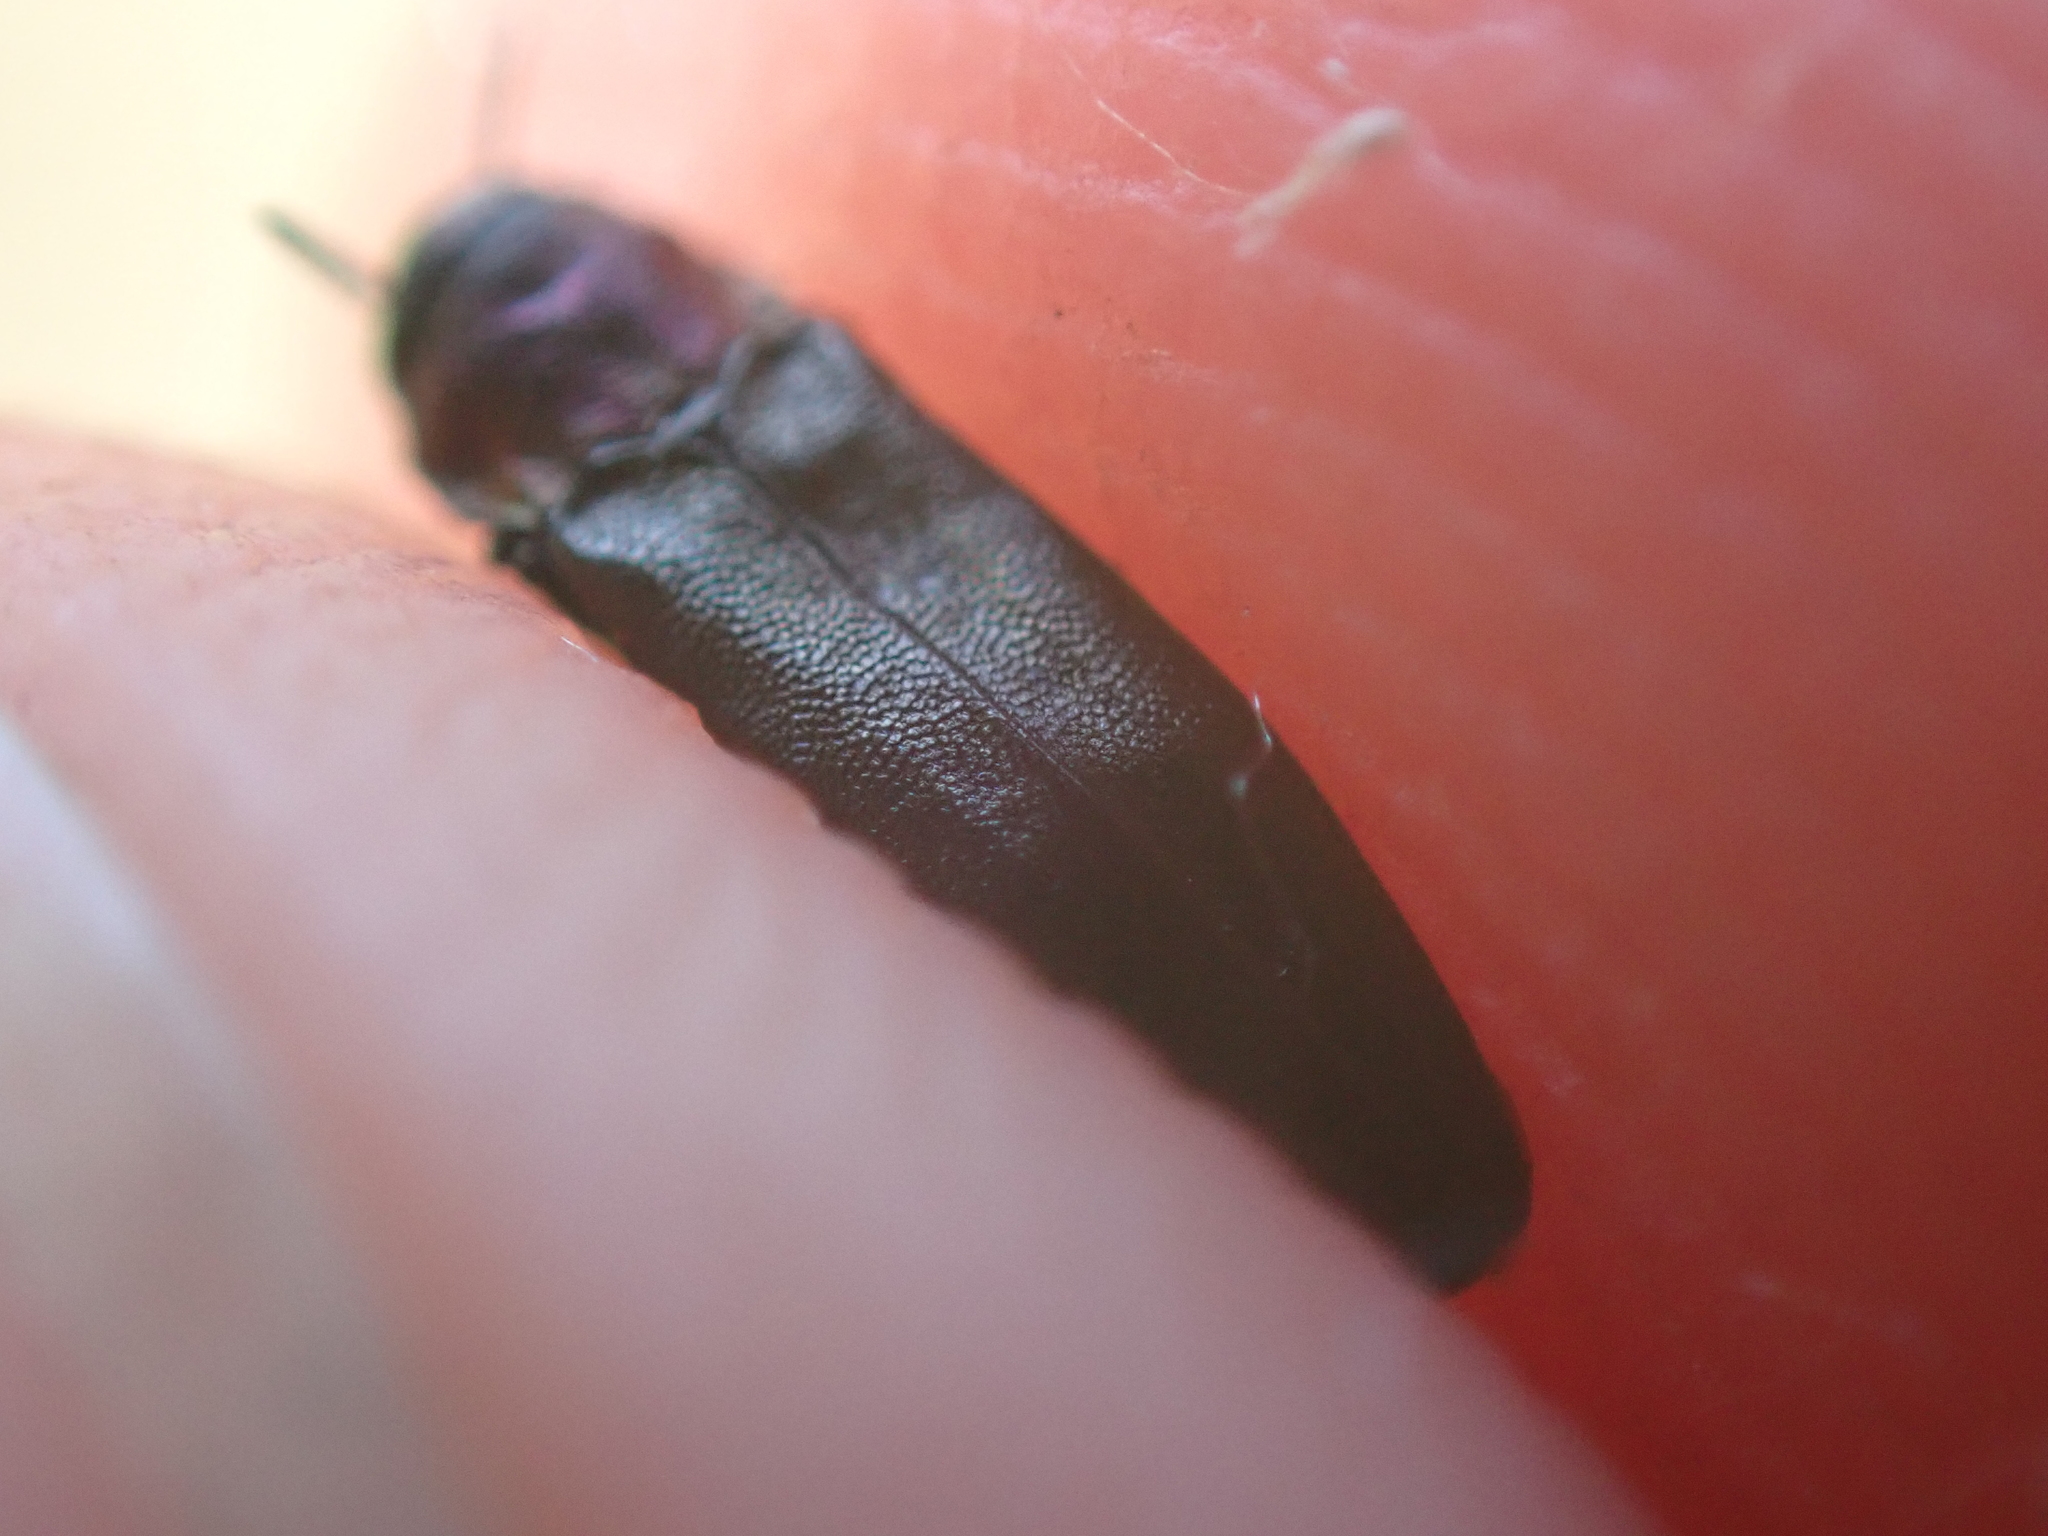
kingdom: Animalia
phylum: Arthropoda
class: Insecta
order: Coleoptera
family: Buprestidae
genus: Agrilus
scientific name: Agrilus pratensis
